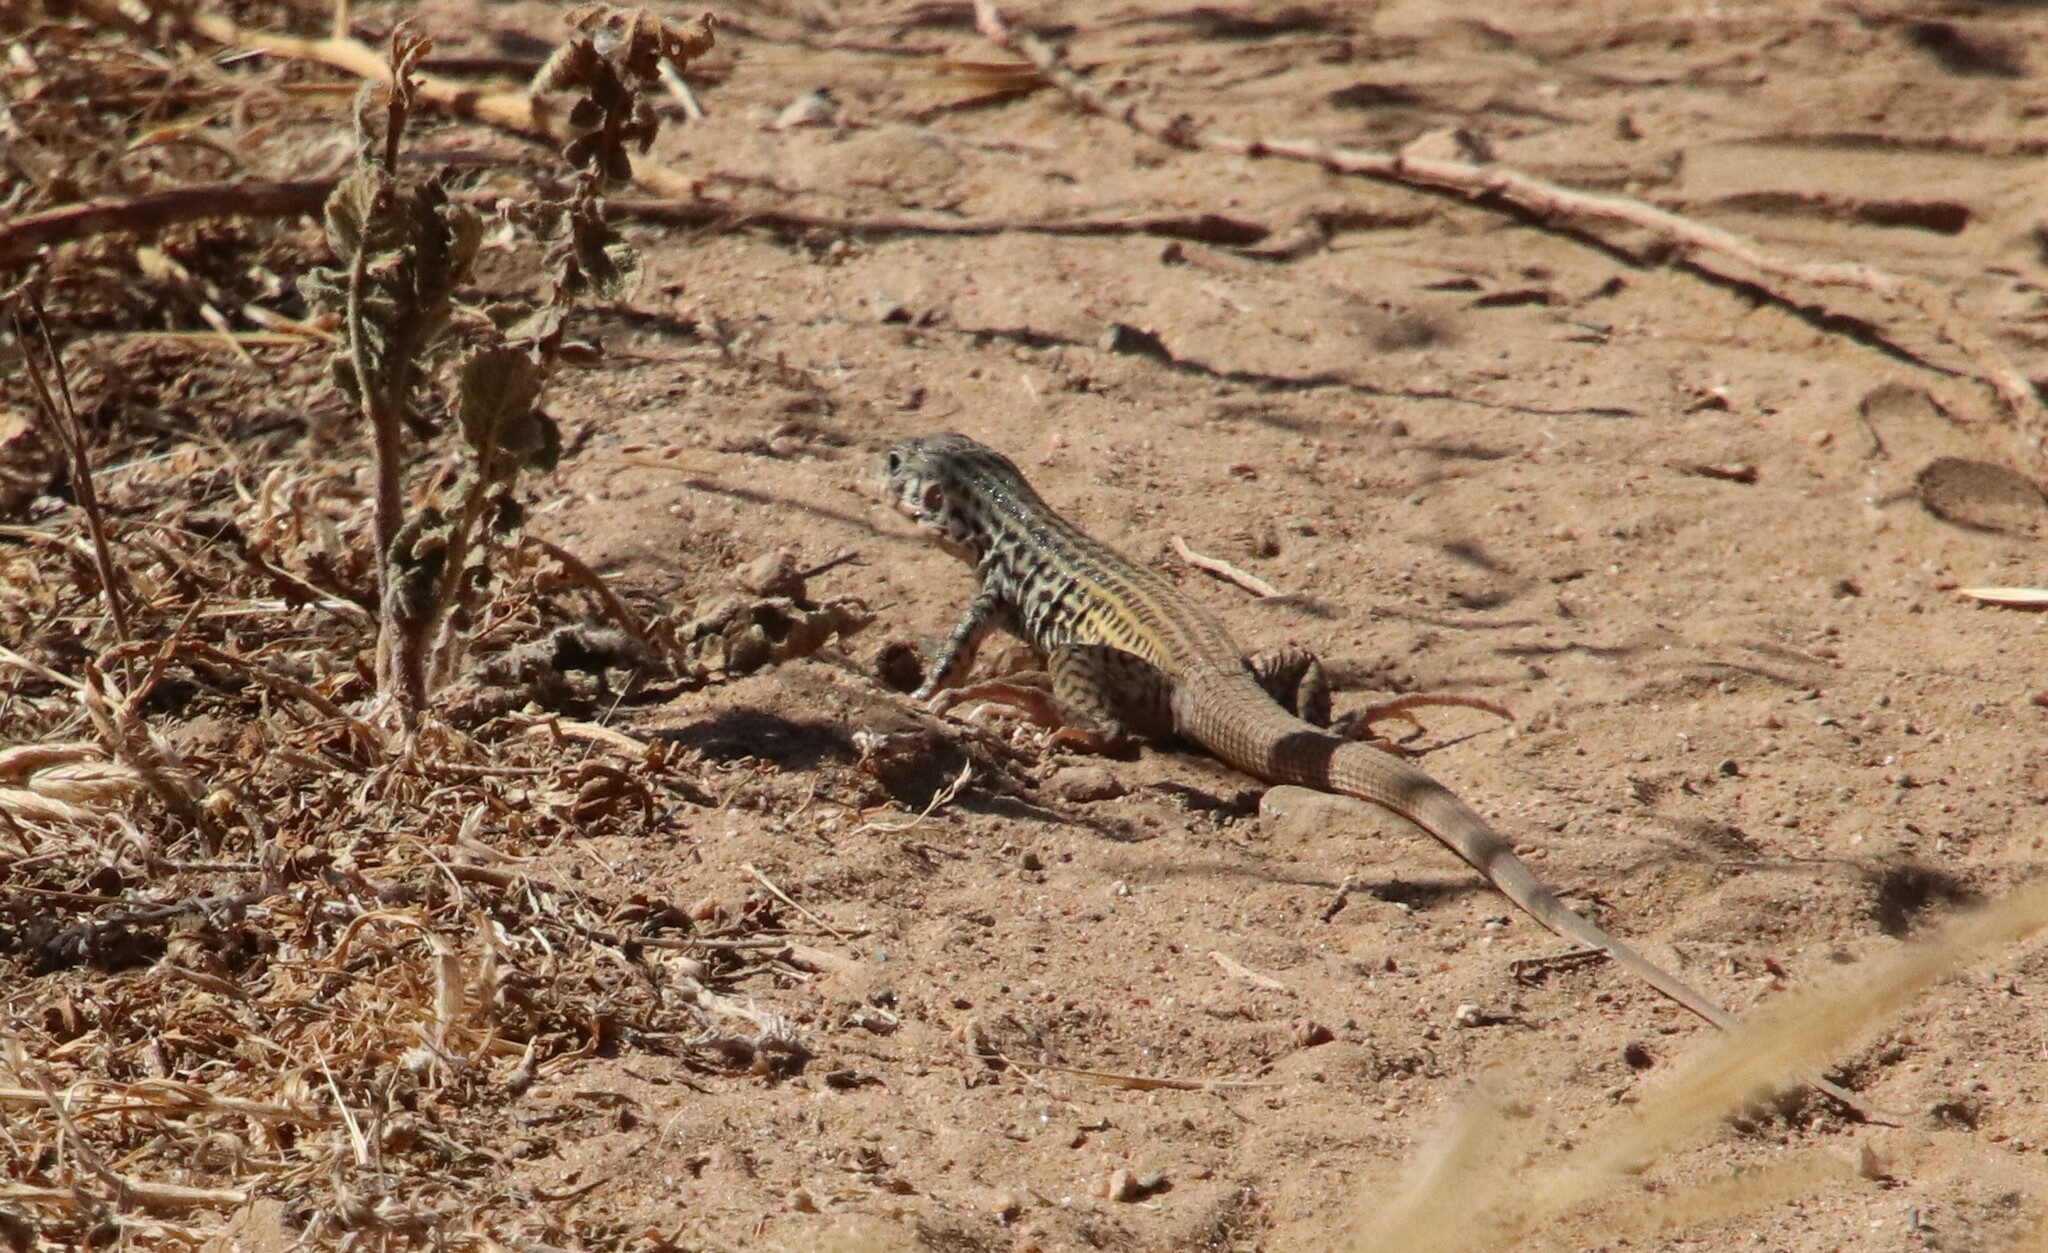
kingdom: Animalia
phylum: Chordata
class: Squamata
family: Teiidae
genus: Aspidoscelis
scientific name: Aspidoscelis tigris
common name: Tiger whiptail
